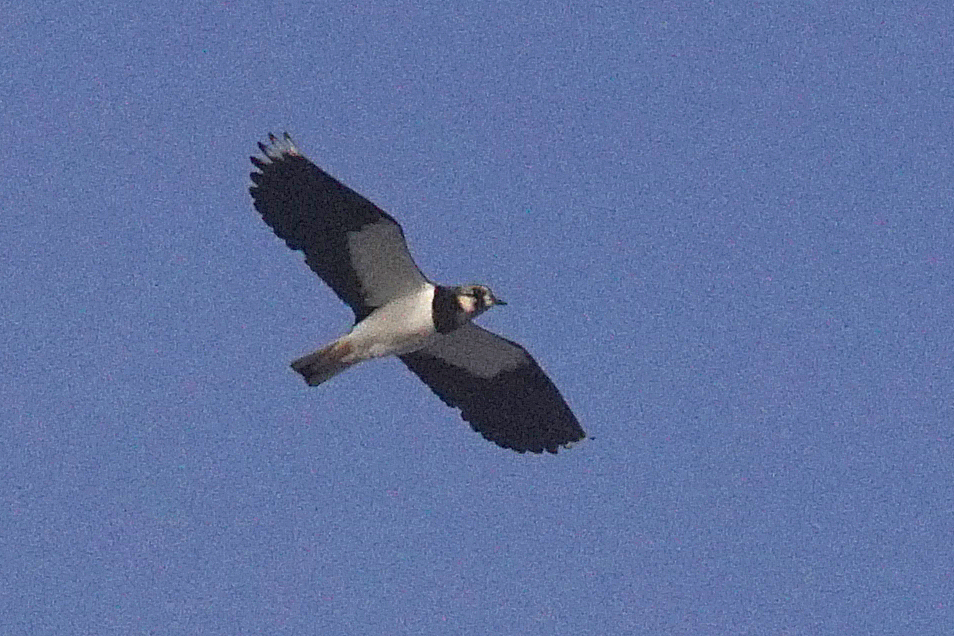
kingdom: Animalia
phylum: Chordata
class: Aves
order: Charadriiformes
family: Charadriidae
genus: Vanellus
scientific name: Vanellus vanellus
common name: Northern lapwing
